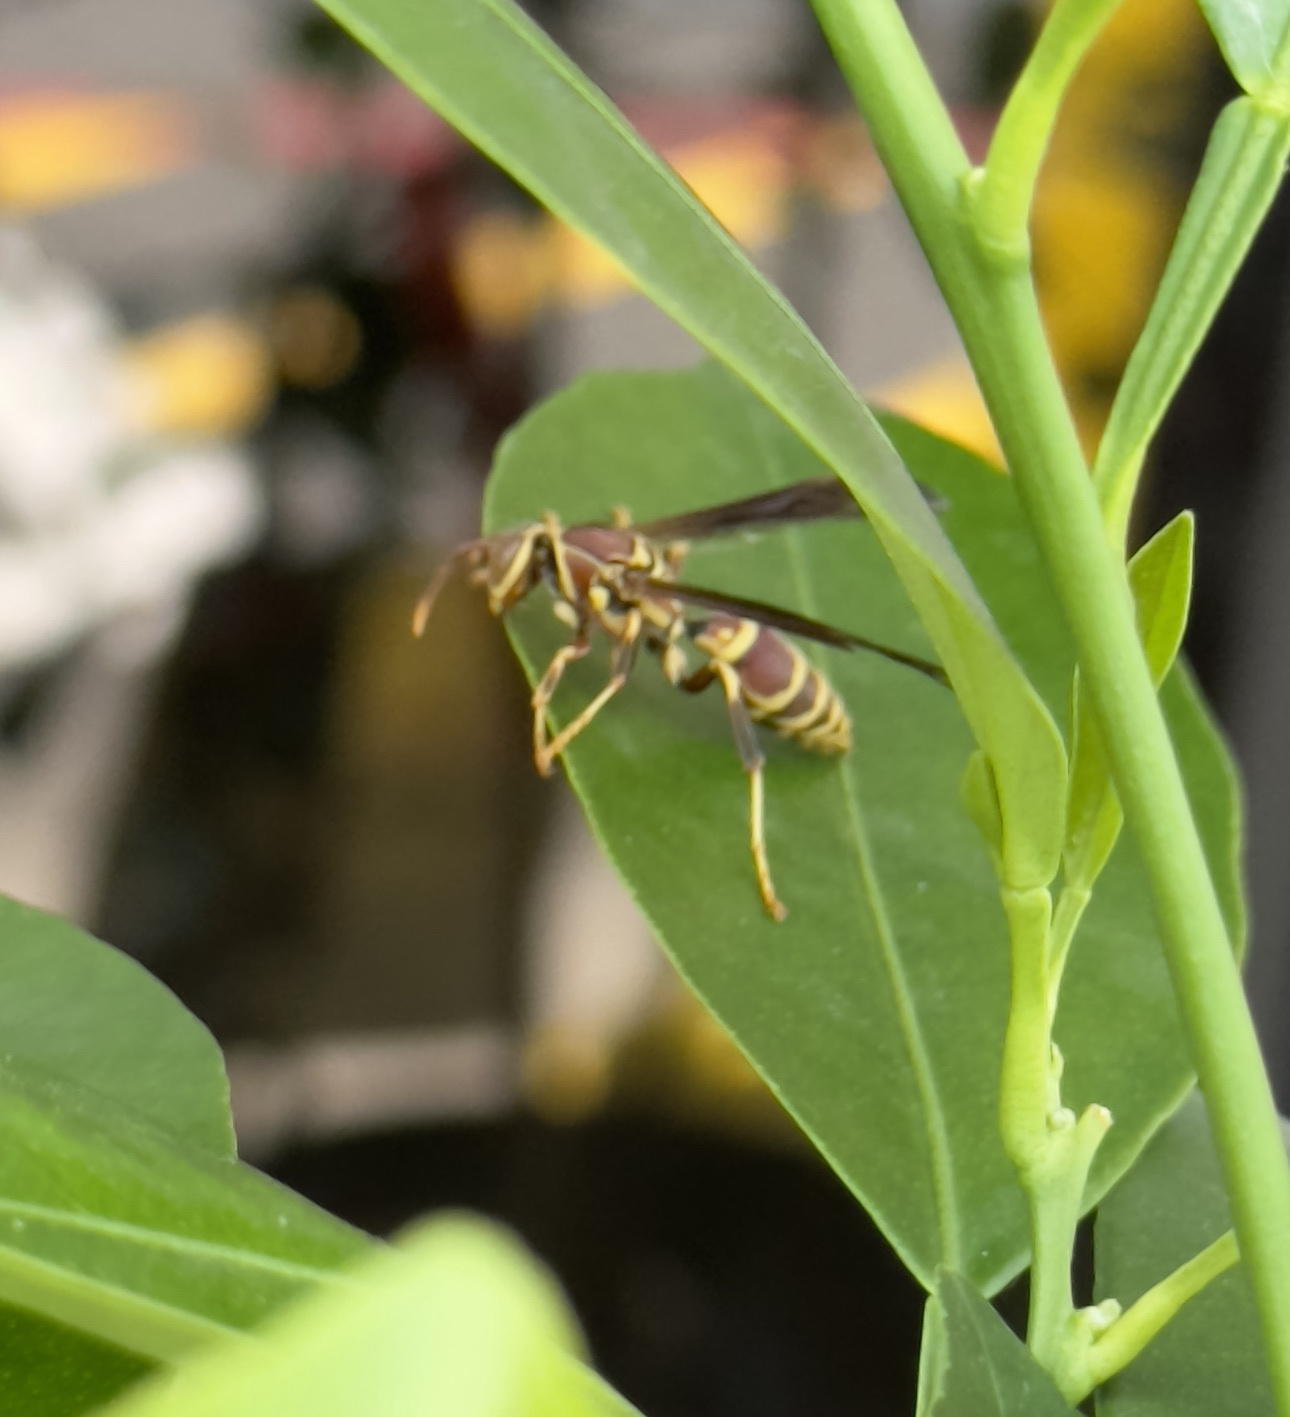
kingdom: Animalia
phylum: Arthropoda
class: Insecta
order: Hymenoptera
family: Eumenidae
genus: Polistes
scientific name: Polistes exclamans
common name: Paper wasp
